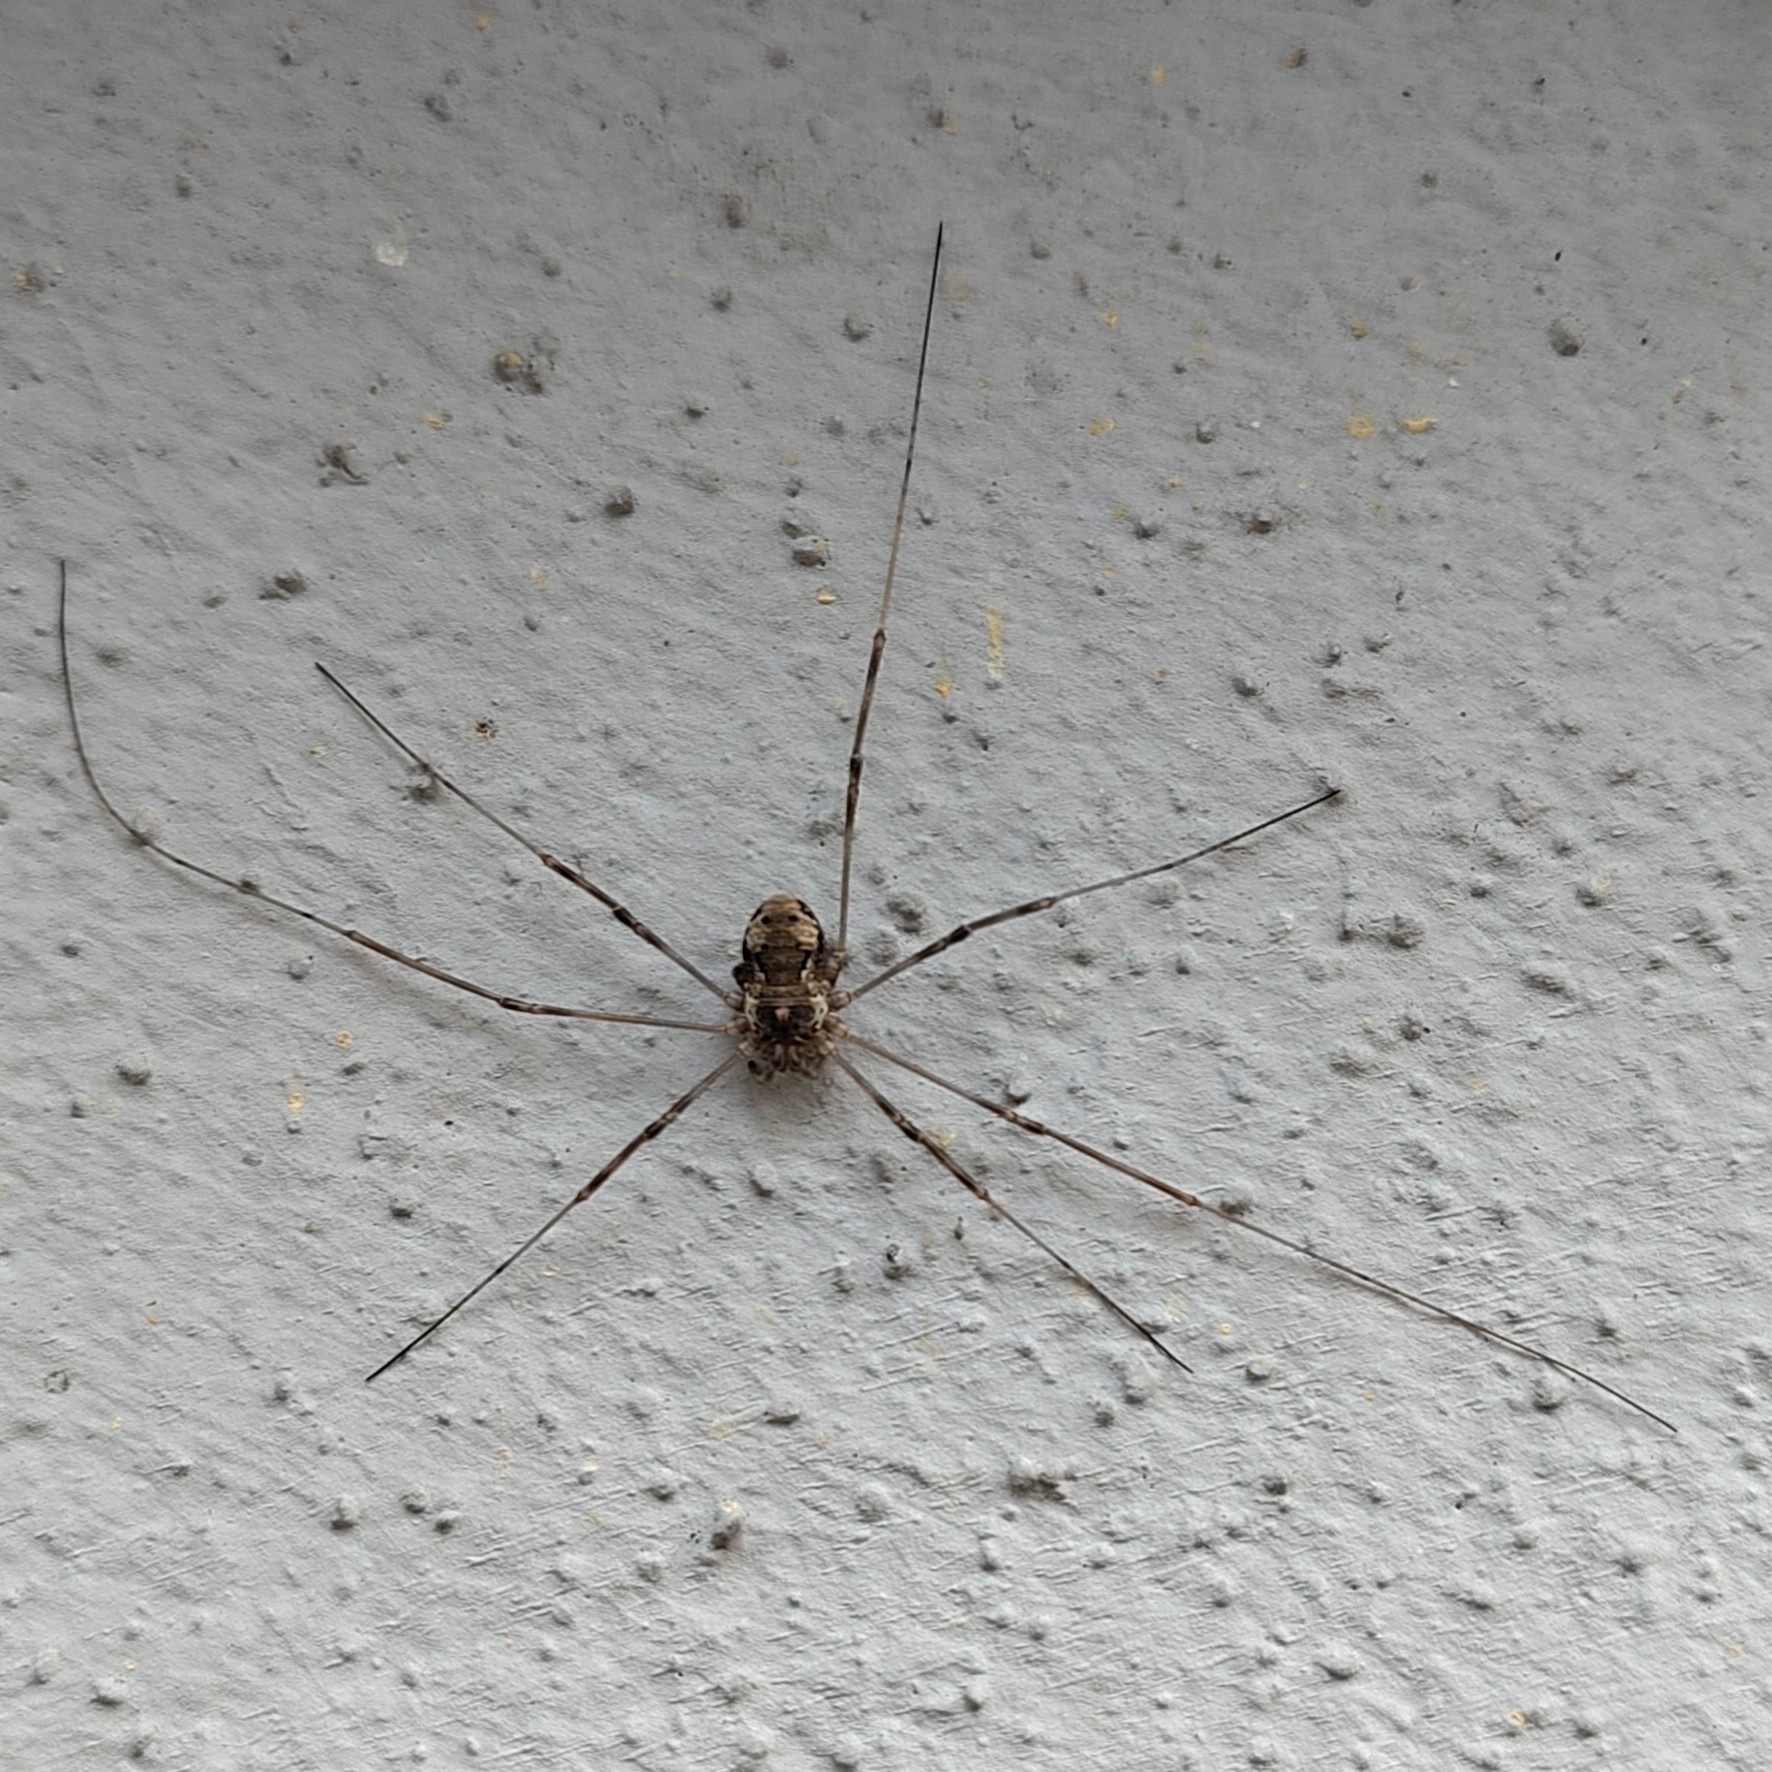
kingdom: Animalia
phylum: Arthropoda
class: Arachnida
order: Opiliones
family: Phalangiidae
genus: Dasylobus
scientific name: Dasylobus graniferus
